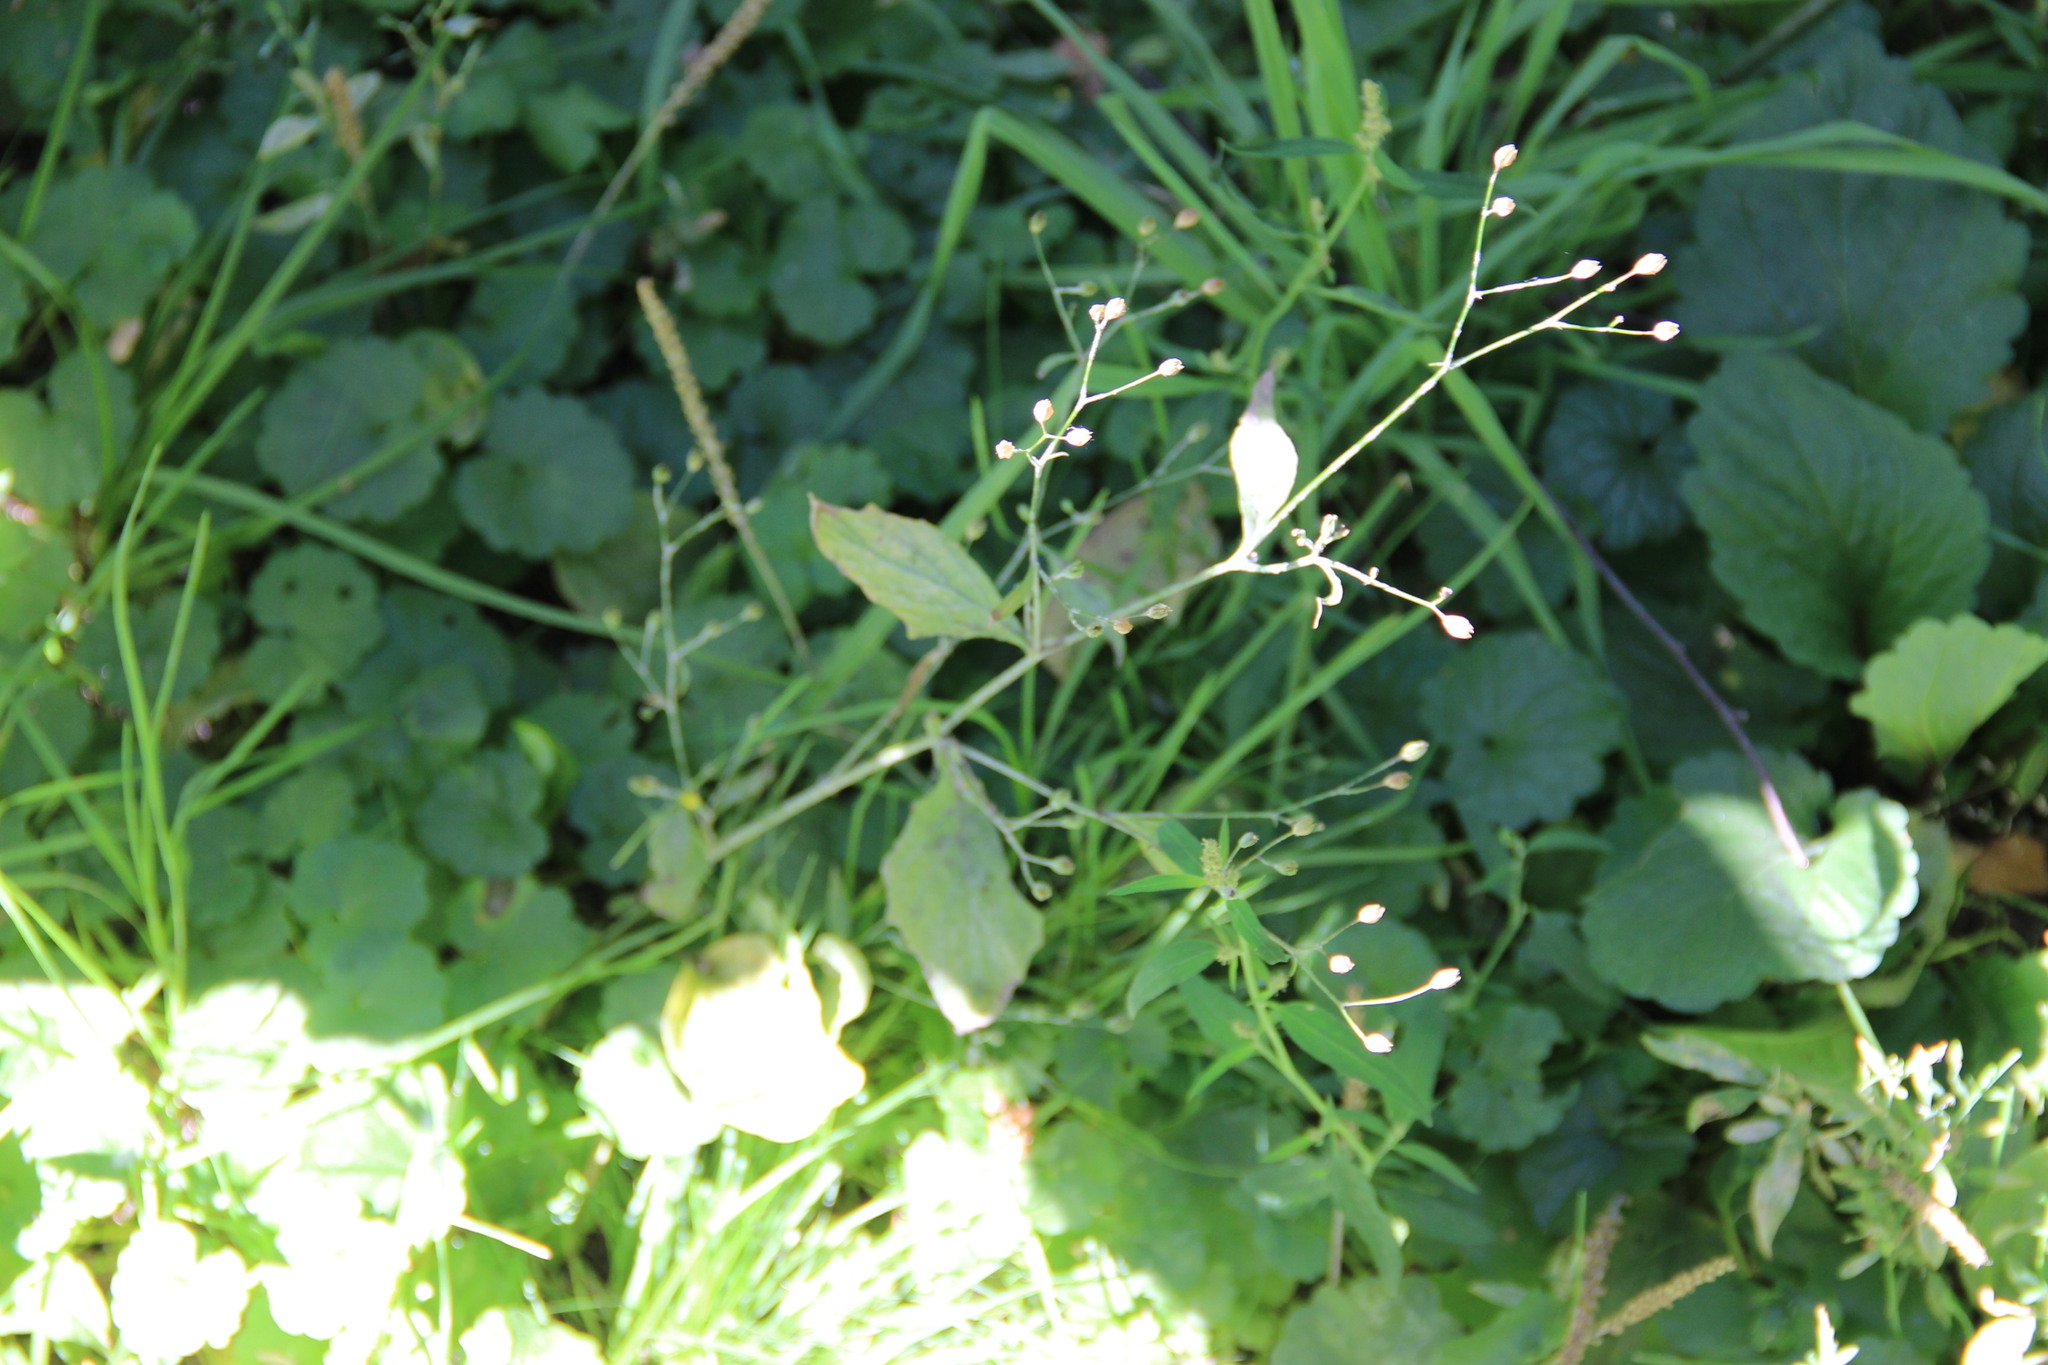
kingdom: Plantae
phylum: Tracheophyta
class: Magnoliopsida
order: Asterales
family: Asteraceae
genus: Lapsana
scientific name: Lapsana communis
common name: Nipplewort
